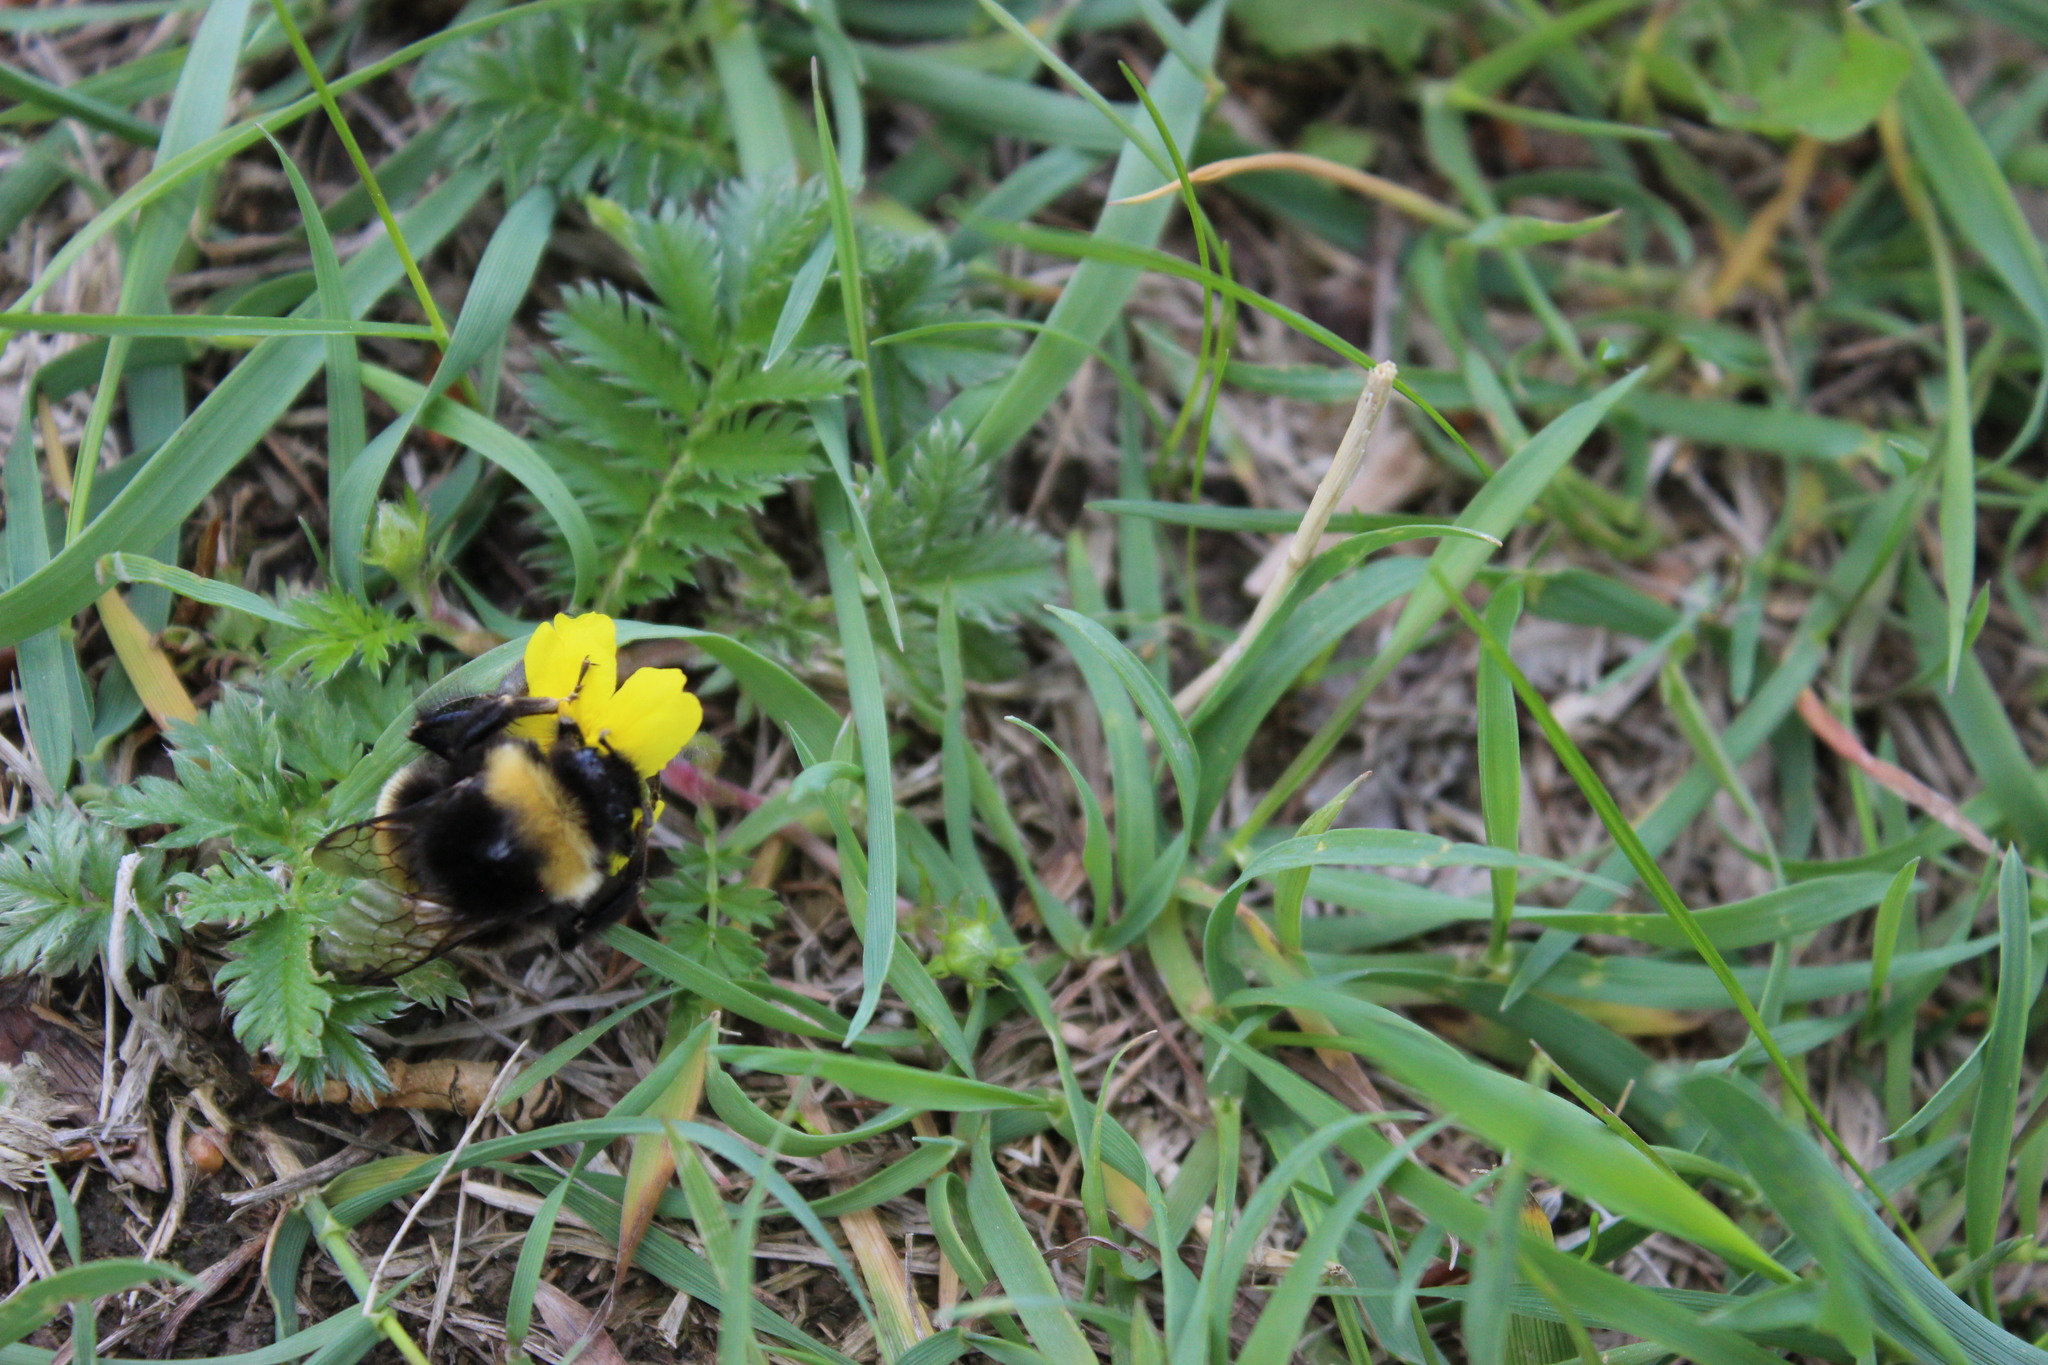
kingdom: Animalia
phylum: Arthropoda
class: Insecta
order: Hymenoptera
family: Apidae
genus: Bombus
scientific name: Bombus
